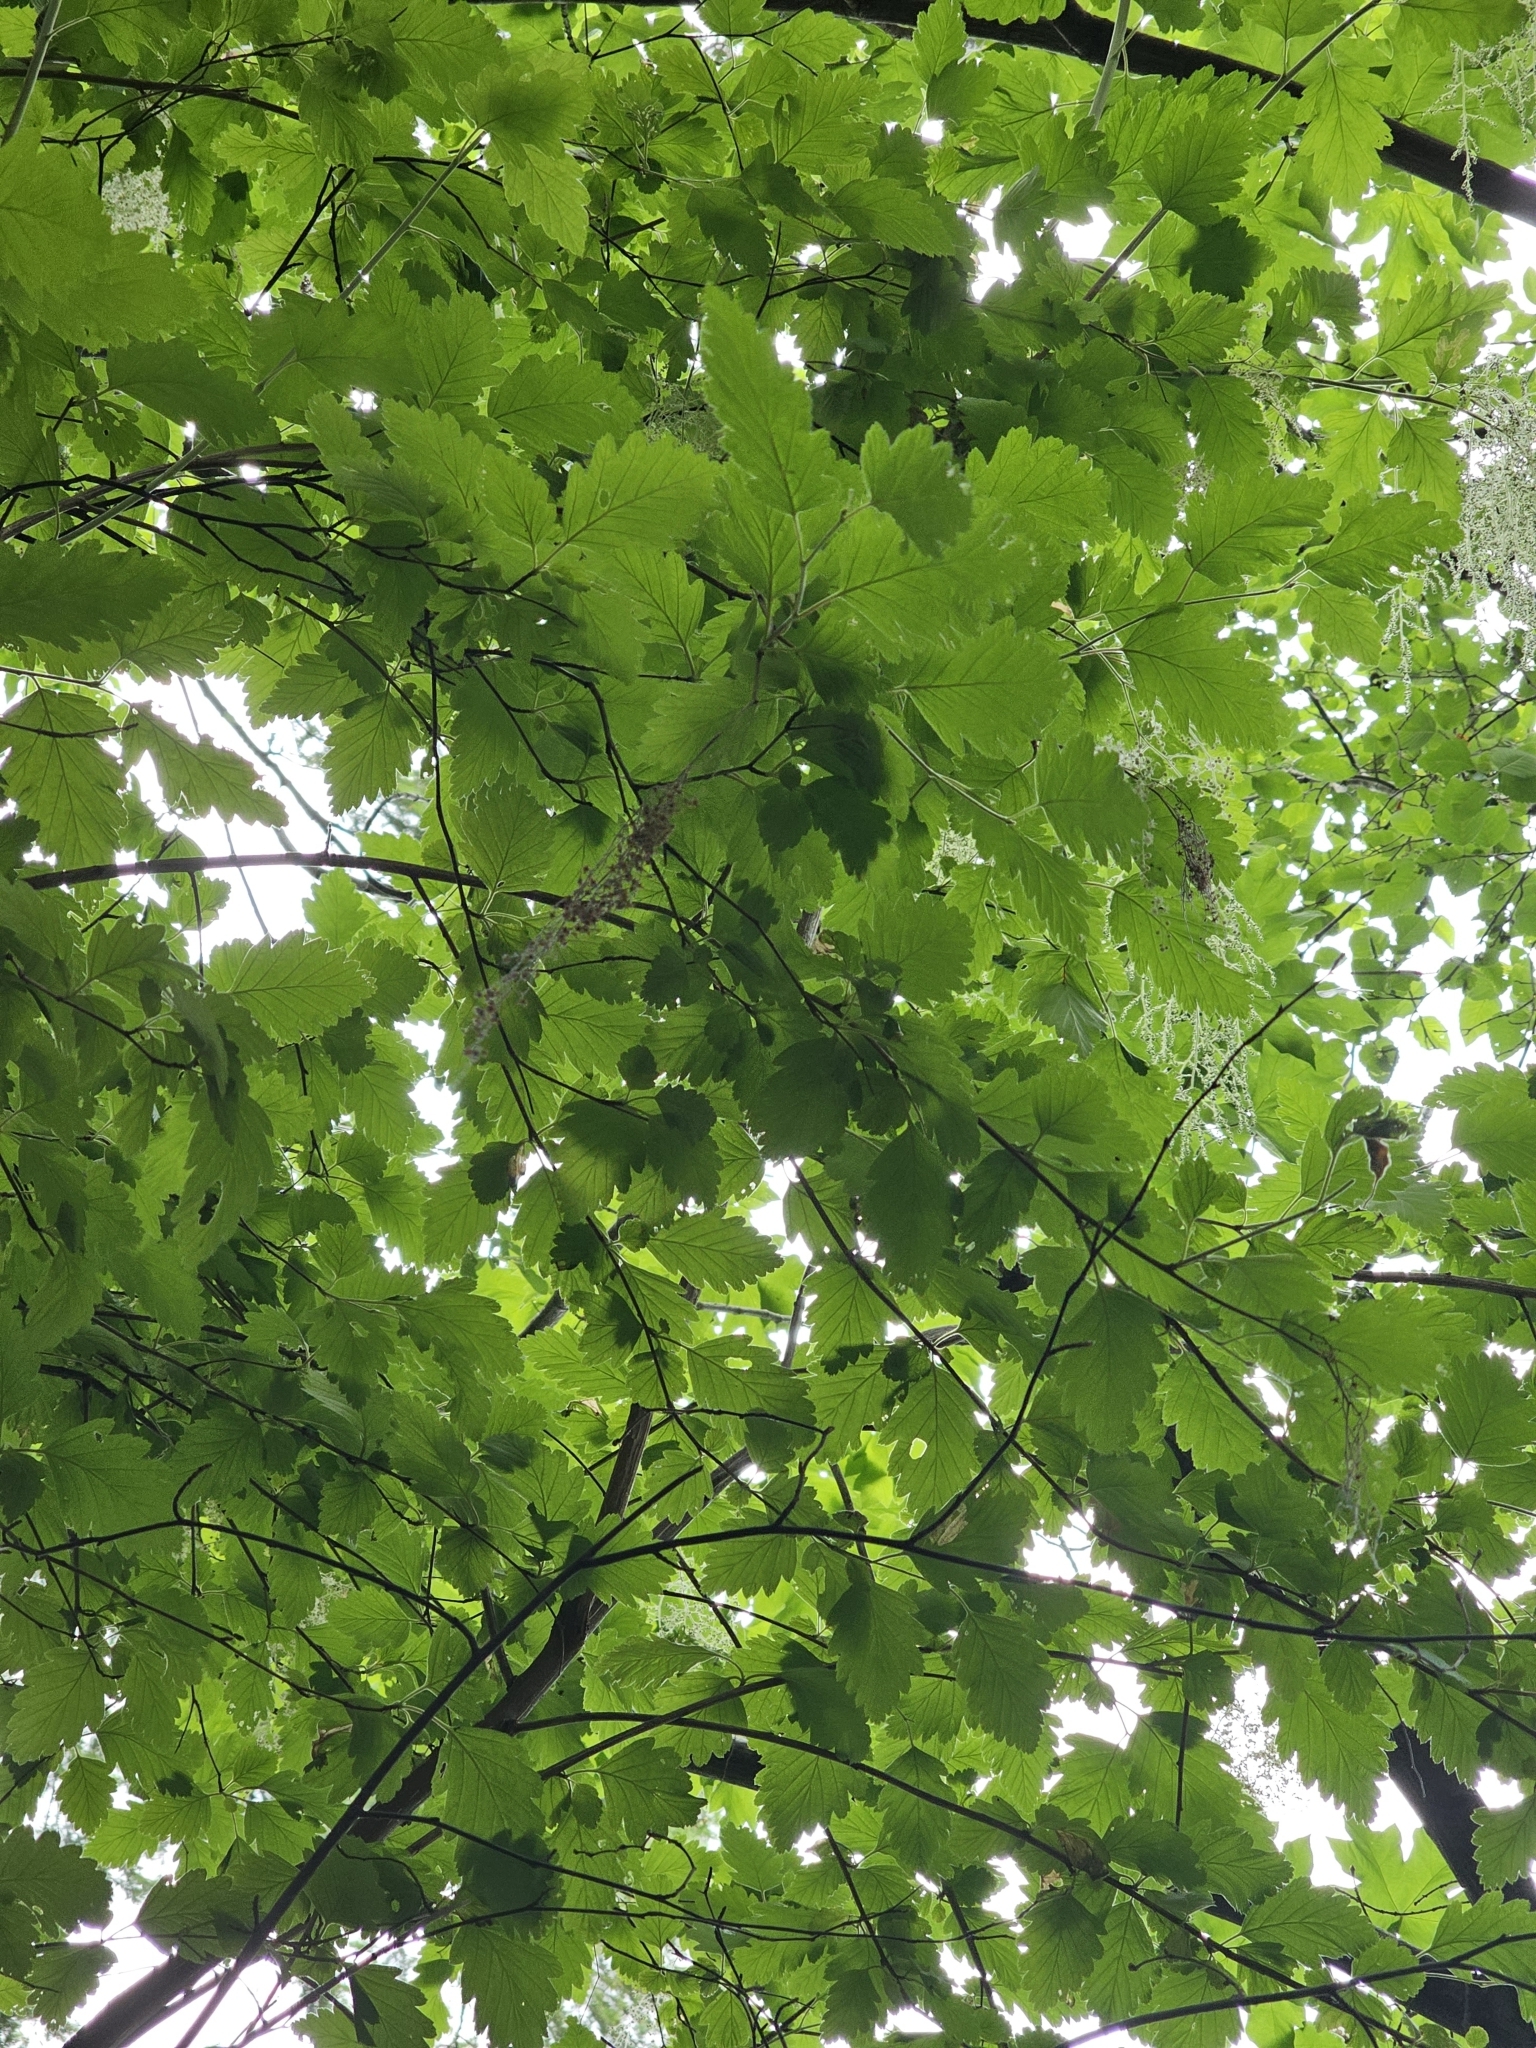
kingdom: Plantae
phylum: Tracheophyta
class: Magnoliopsida
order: Rosales
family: Rosaceae
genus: Holodiscus
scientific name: Holodiscus discolor
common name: Oceanspray
